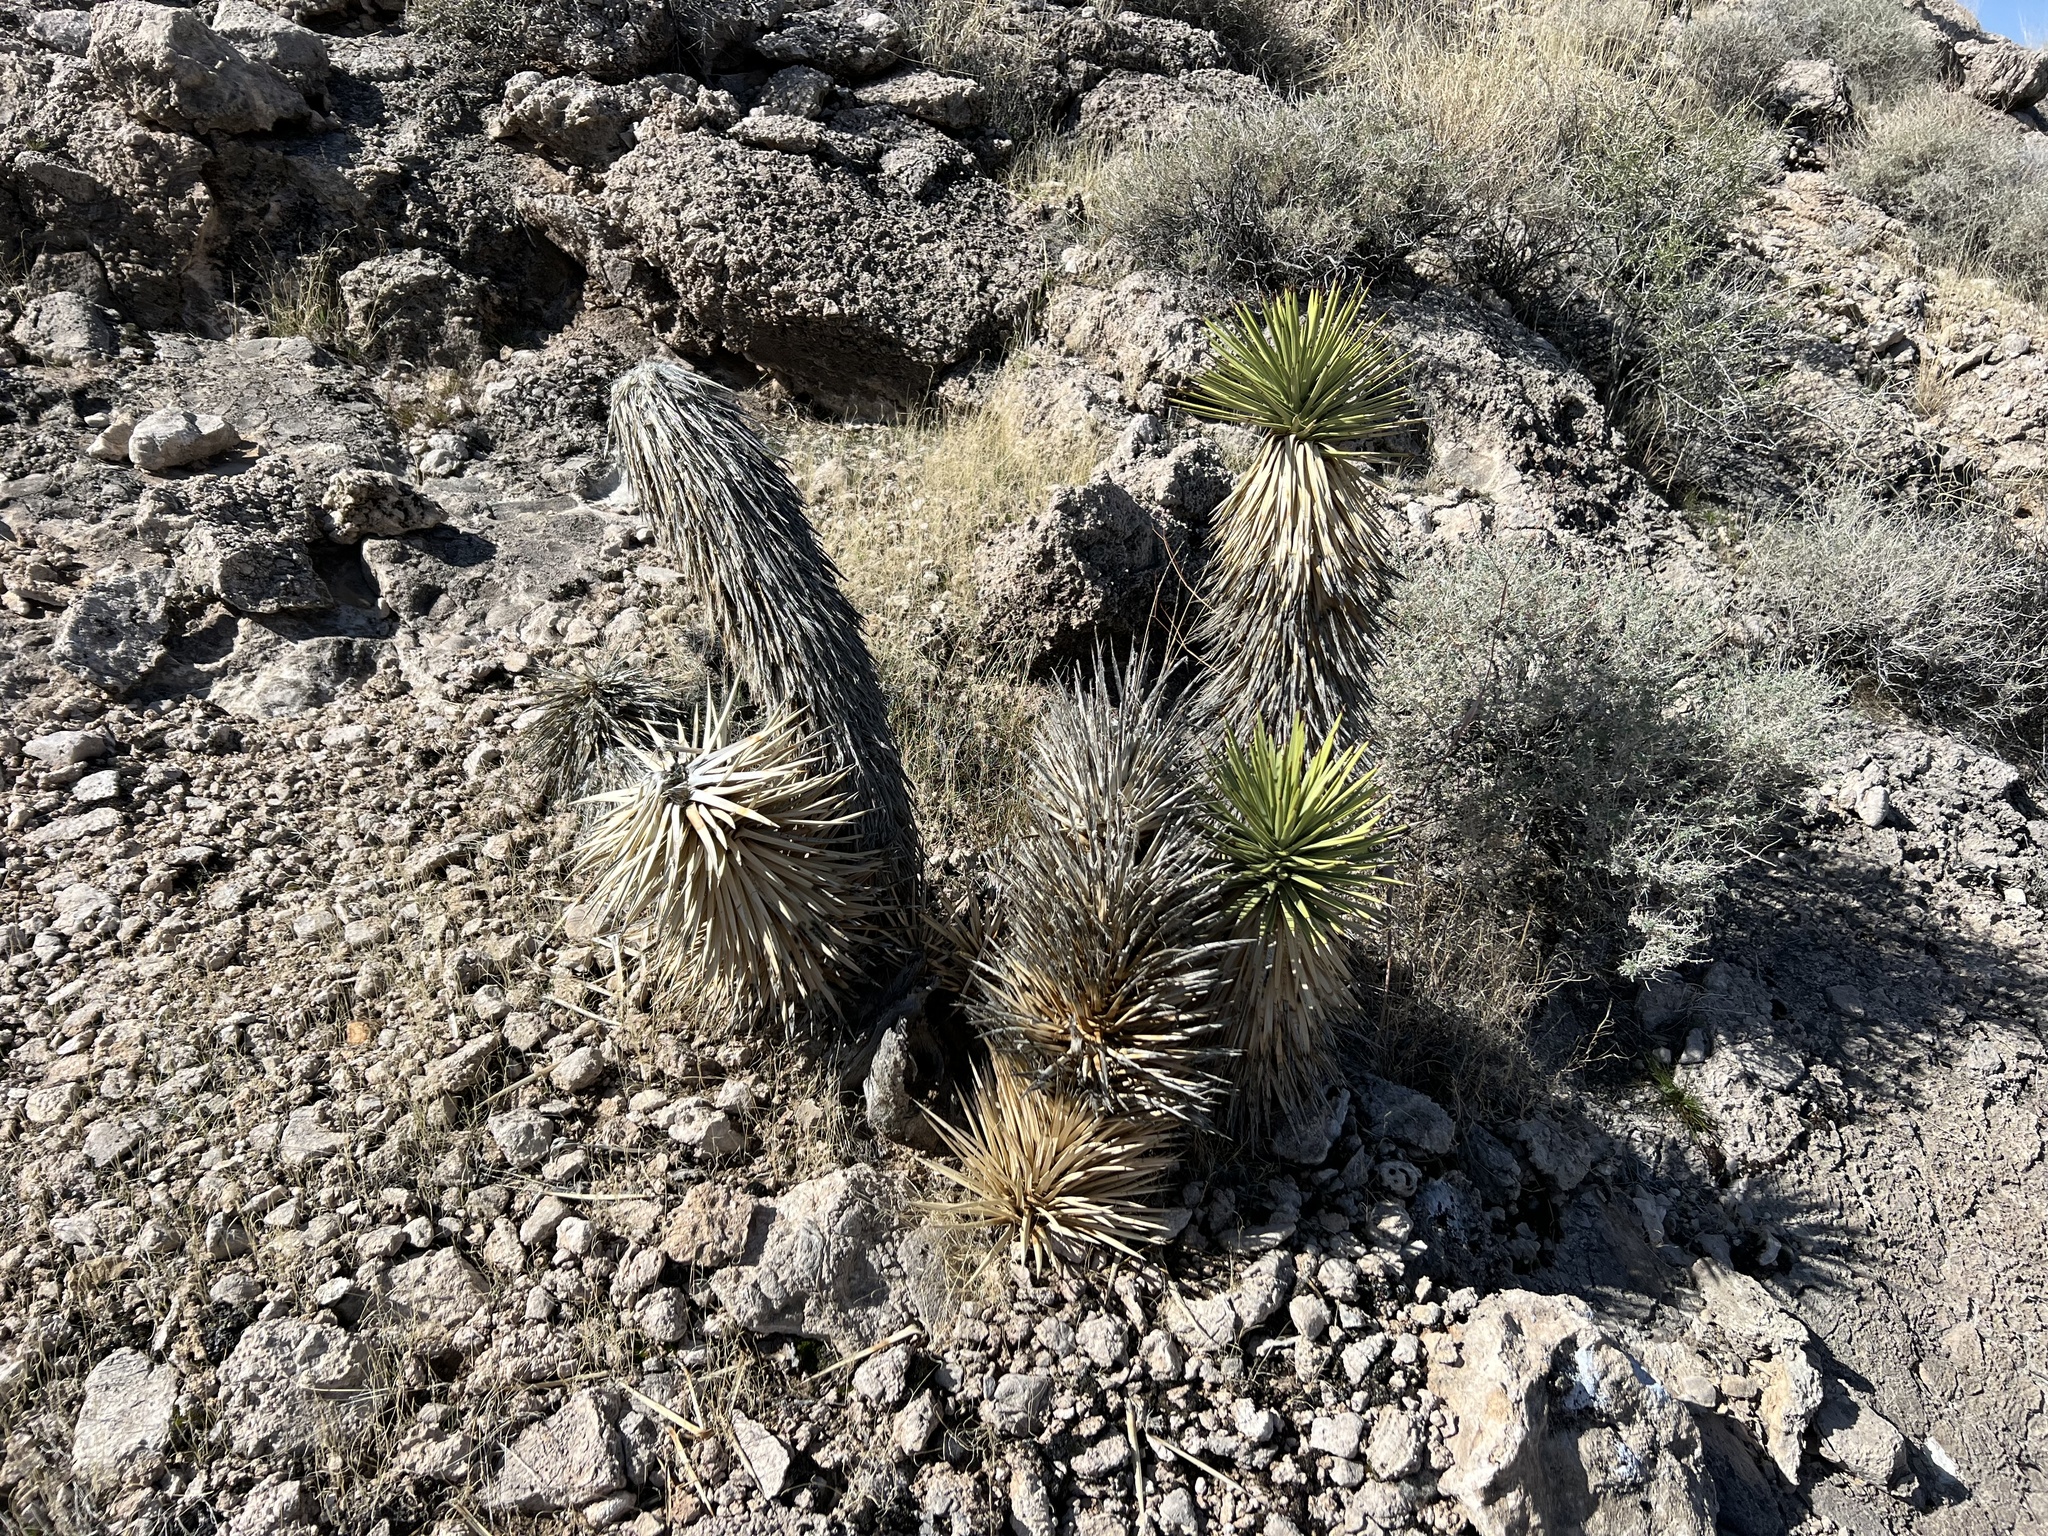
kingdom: Plantae
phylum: Tracheophyta
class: Liliopsida
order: Asparagales
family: Asparagaceae
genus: Yucca
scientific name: Yucca brevifolia
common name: Joshua tree
